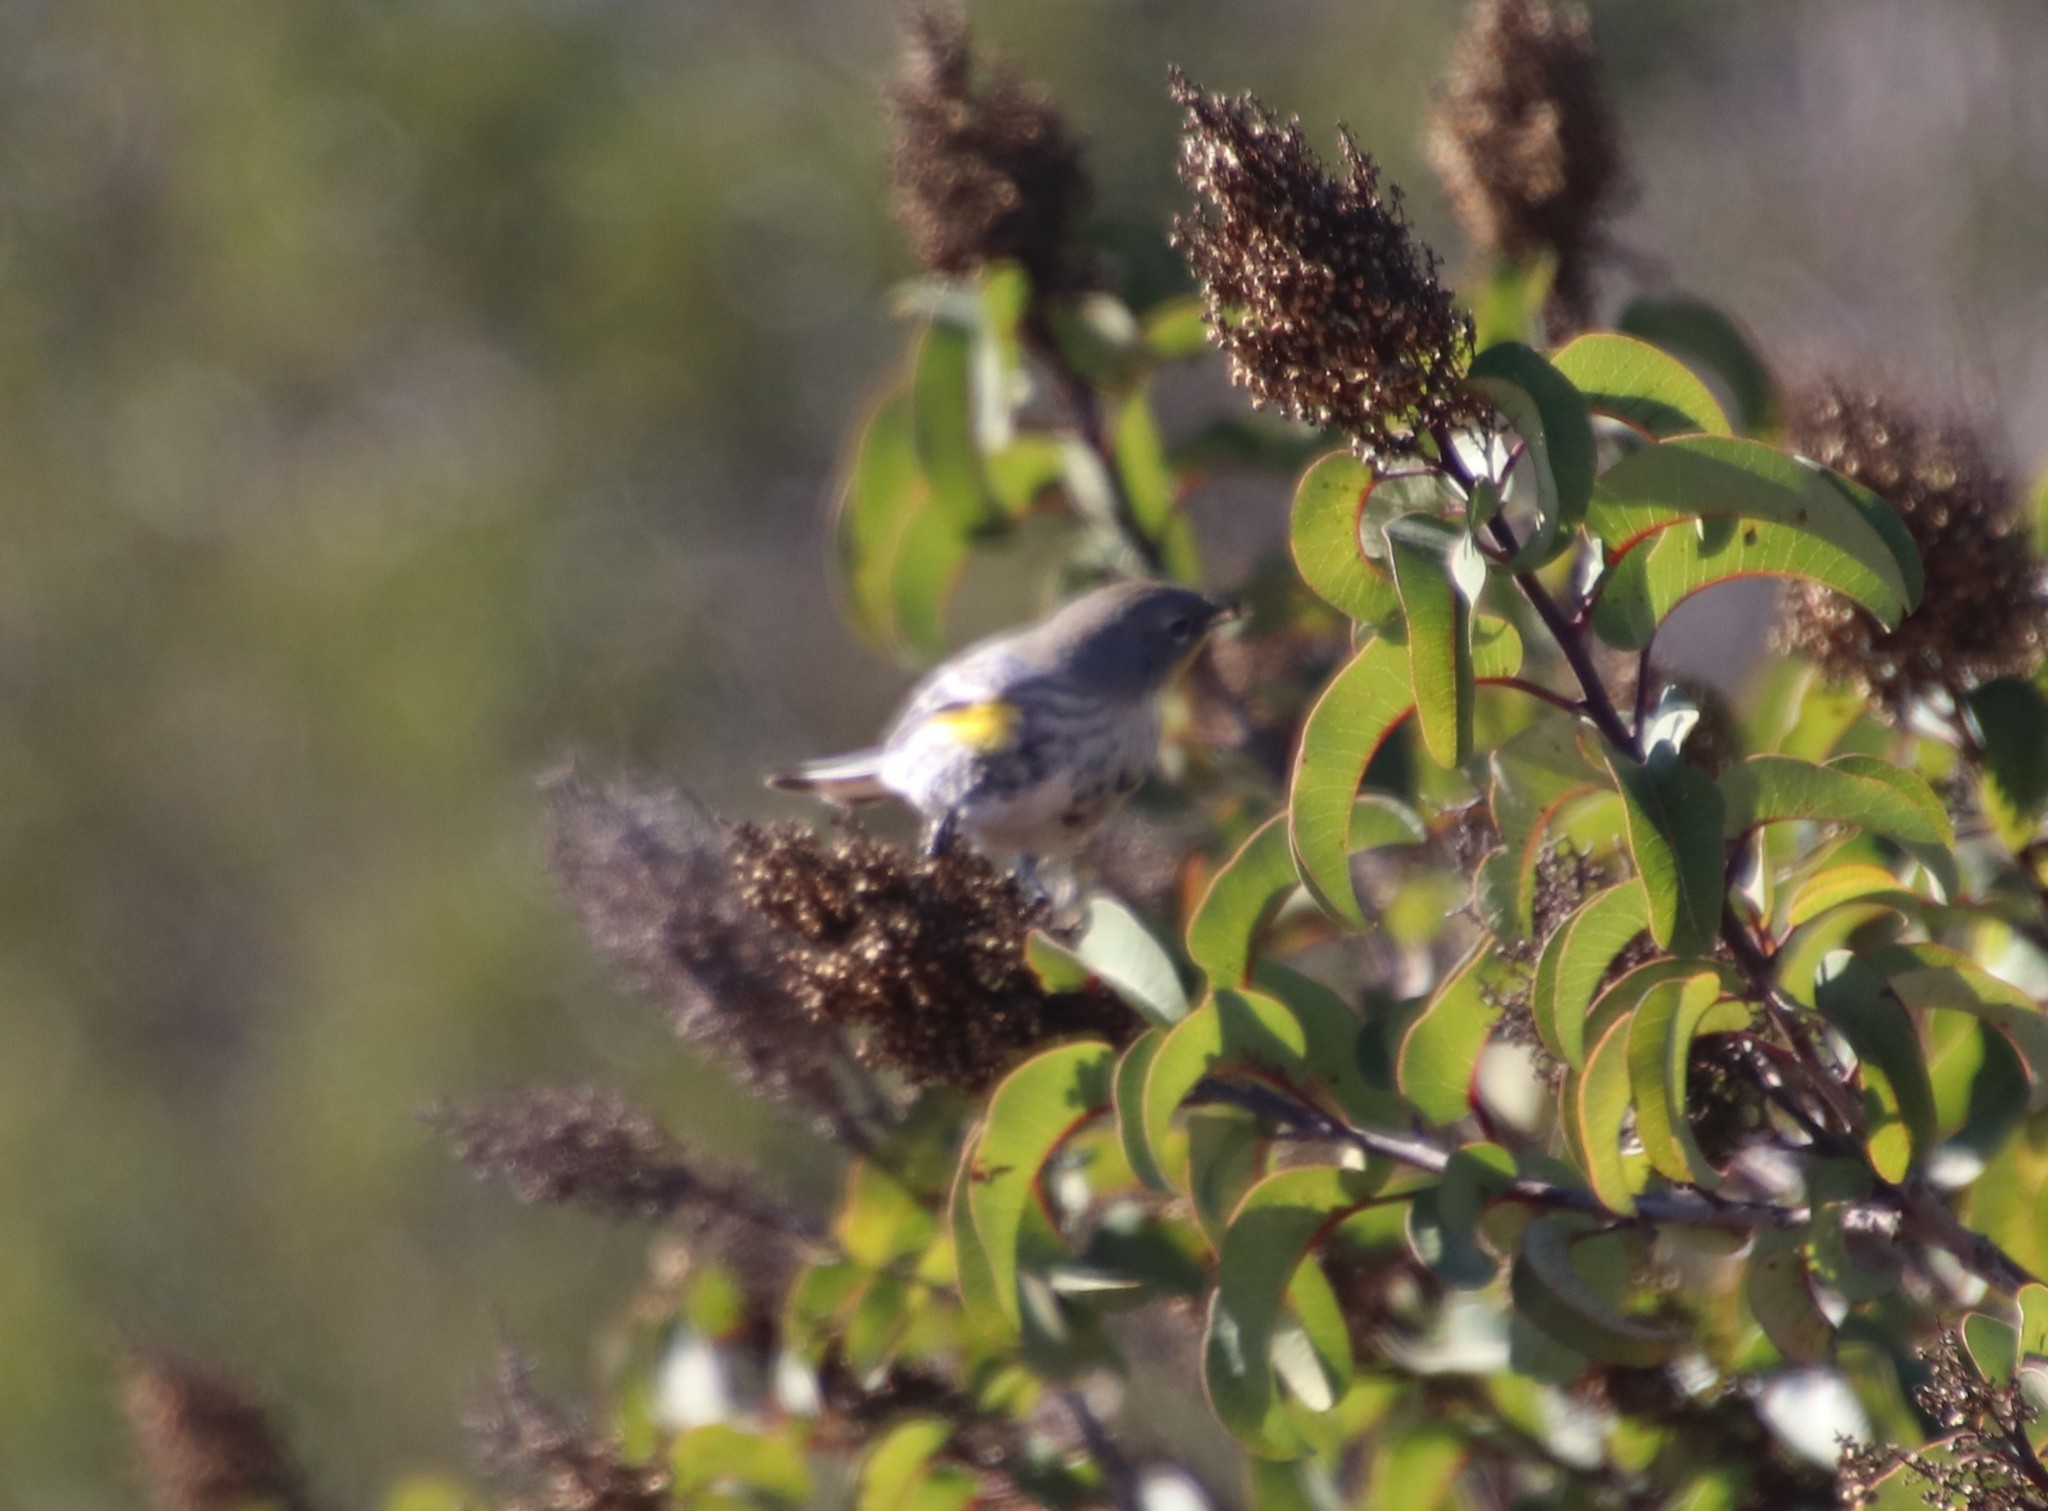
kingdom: Animalia
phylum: Chordata
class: Aves
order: Passeriformes
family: Parulidae
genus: Setophaga
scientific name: Setophaga coronata
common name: Myrtle warbler
